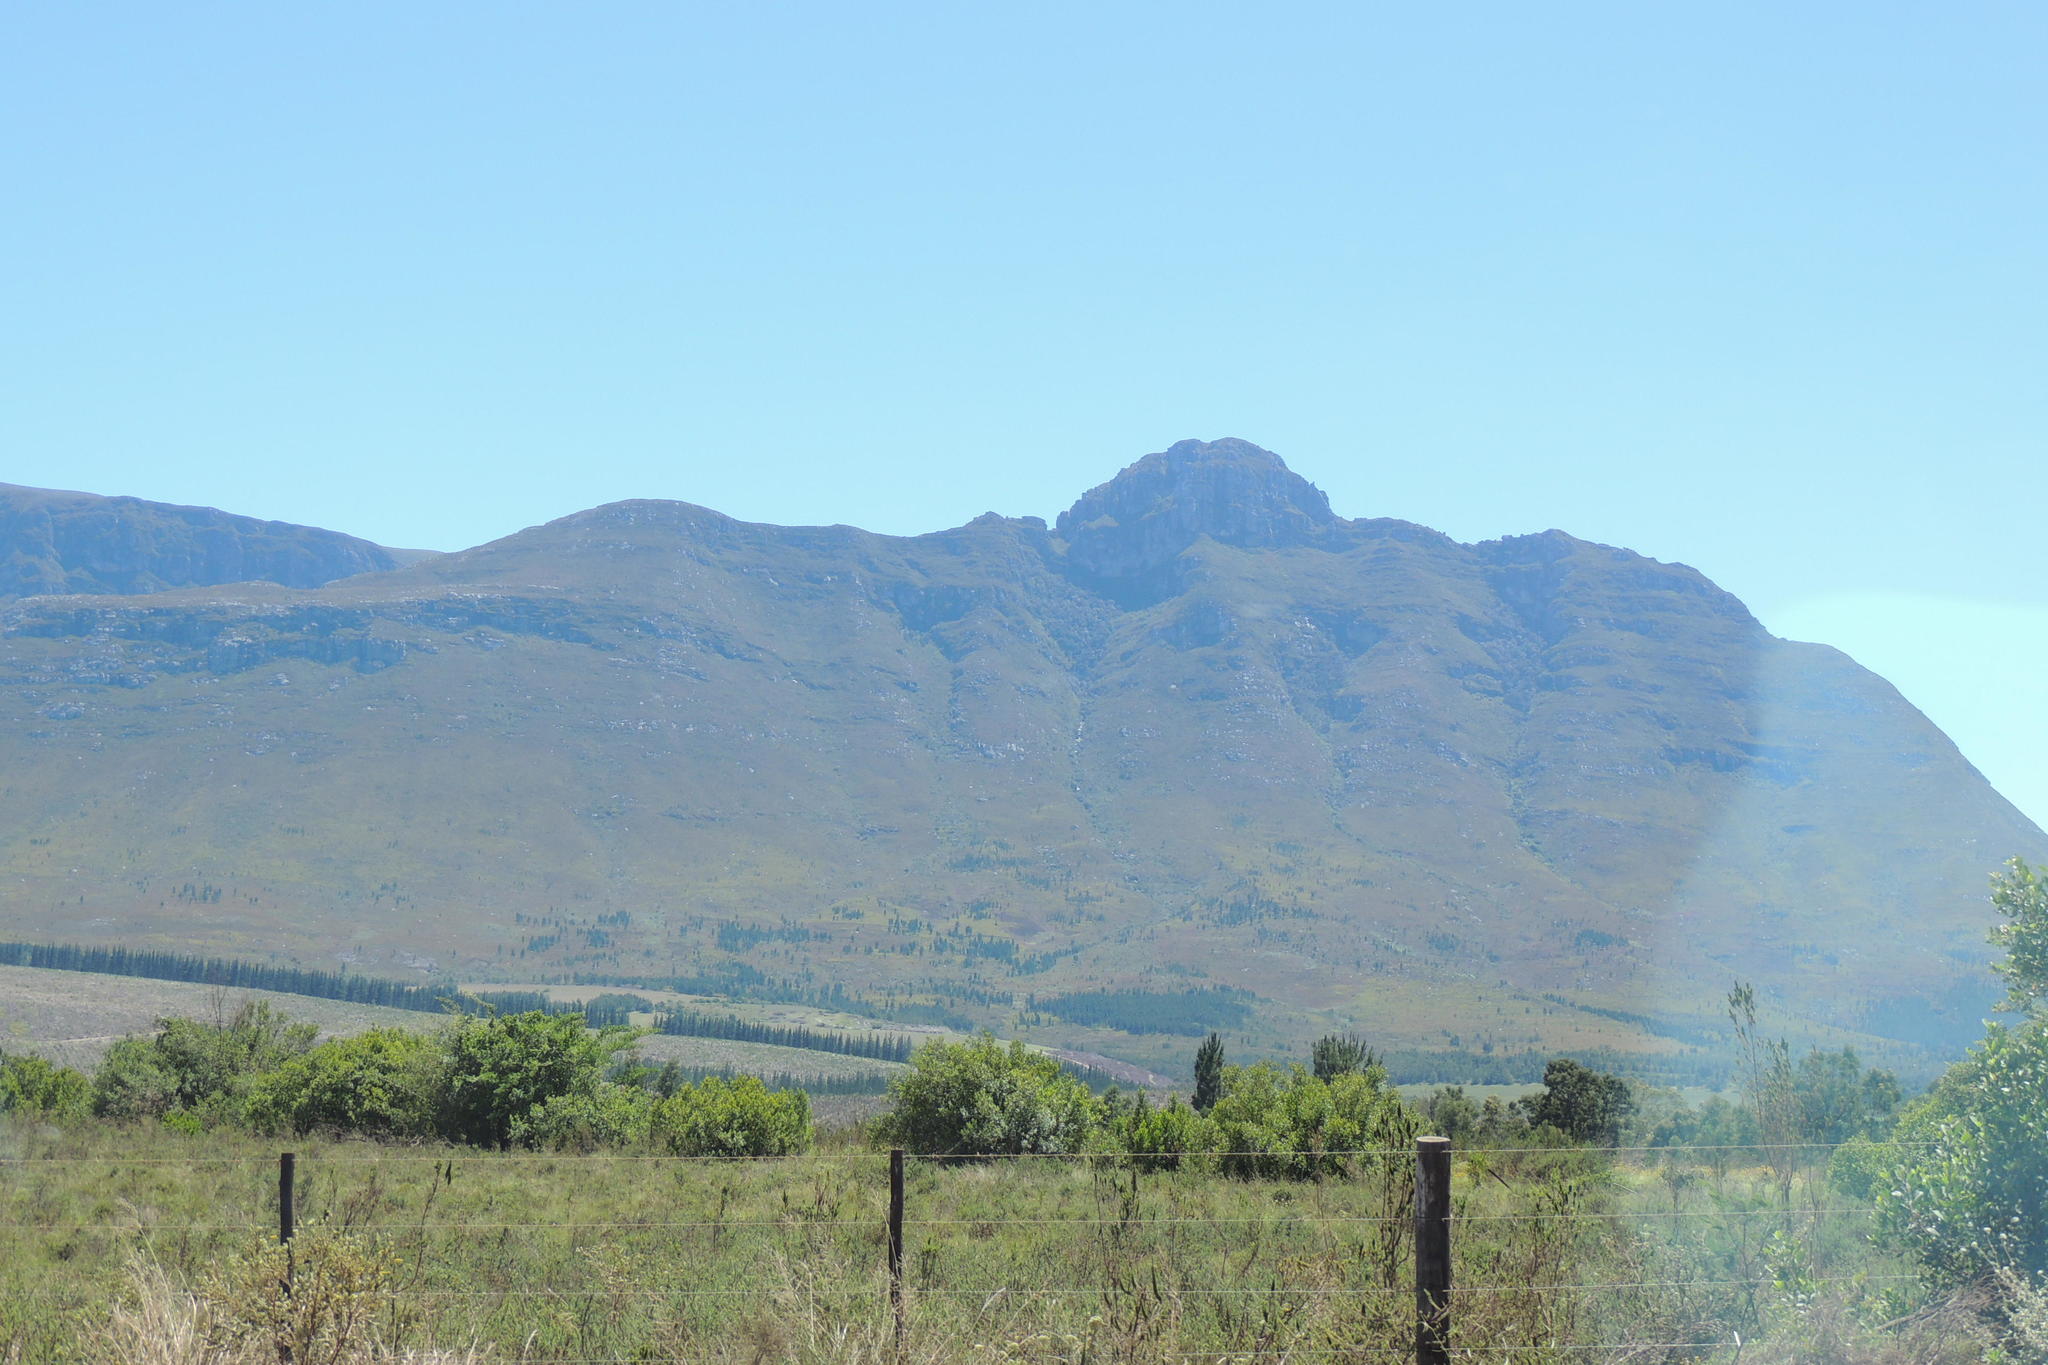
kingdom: Plantae
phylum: Tracheophyta
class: Pinopsida
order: Pinales
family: Pinaceae
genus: Pinus
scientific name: Pinus pinaster
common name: Maritime pine
